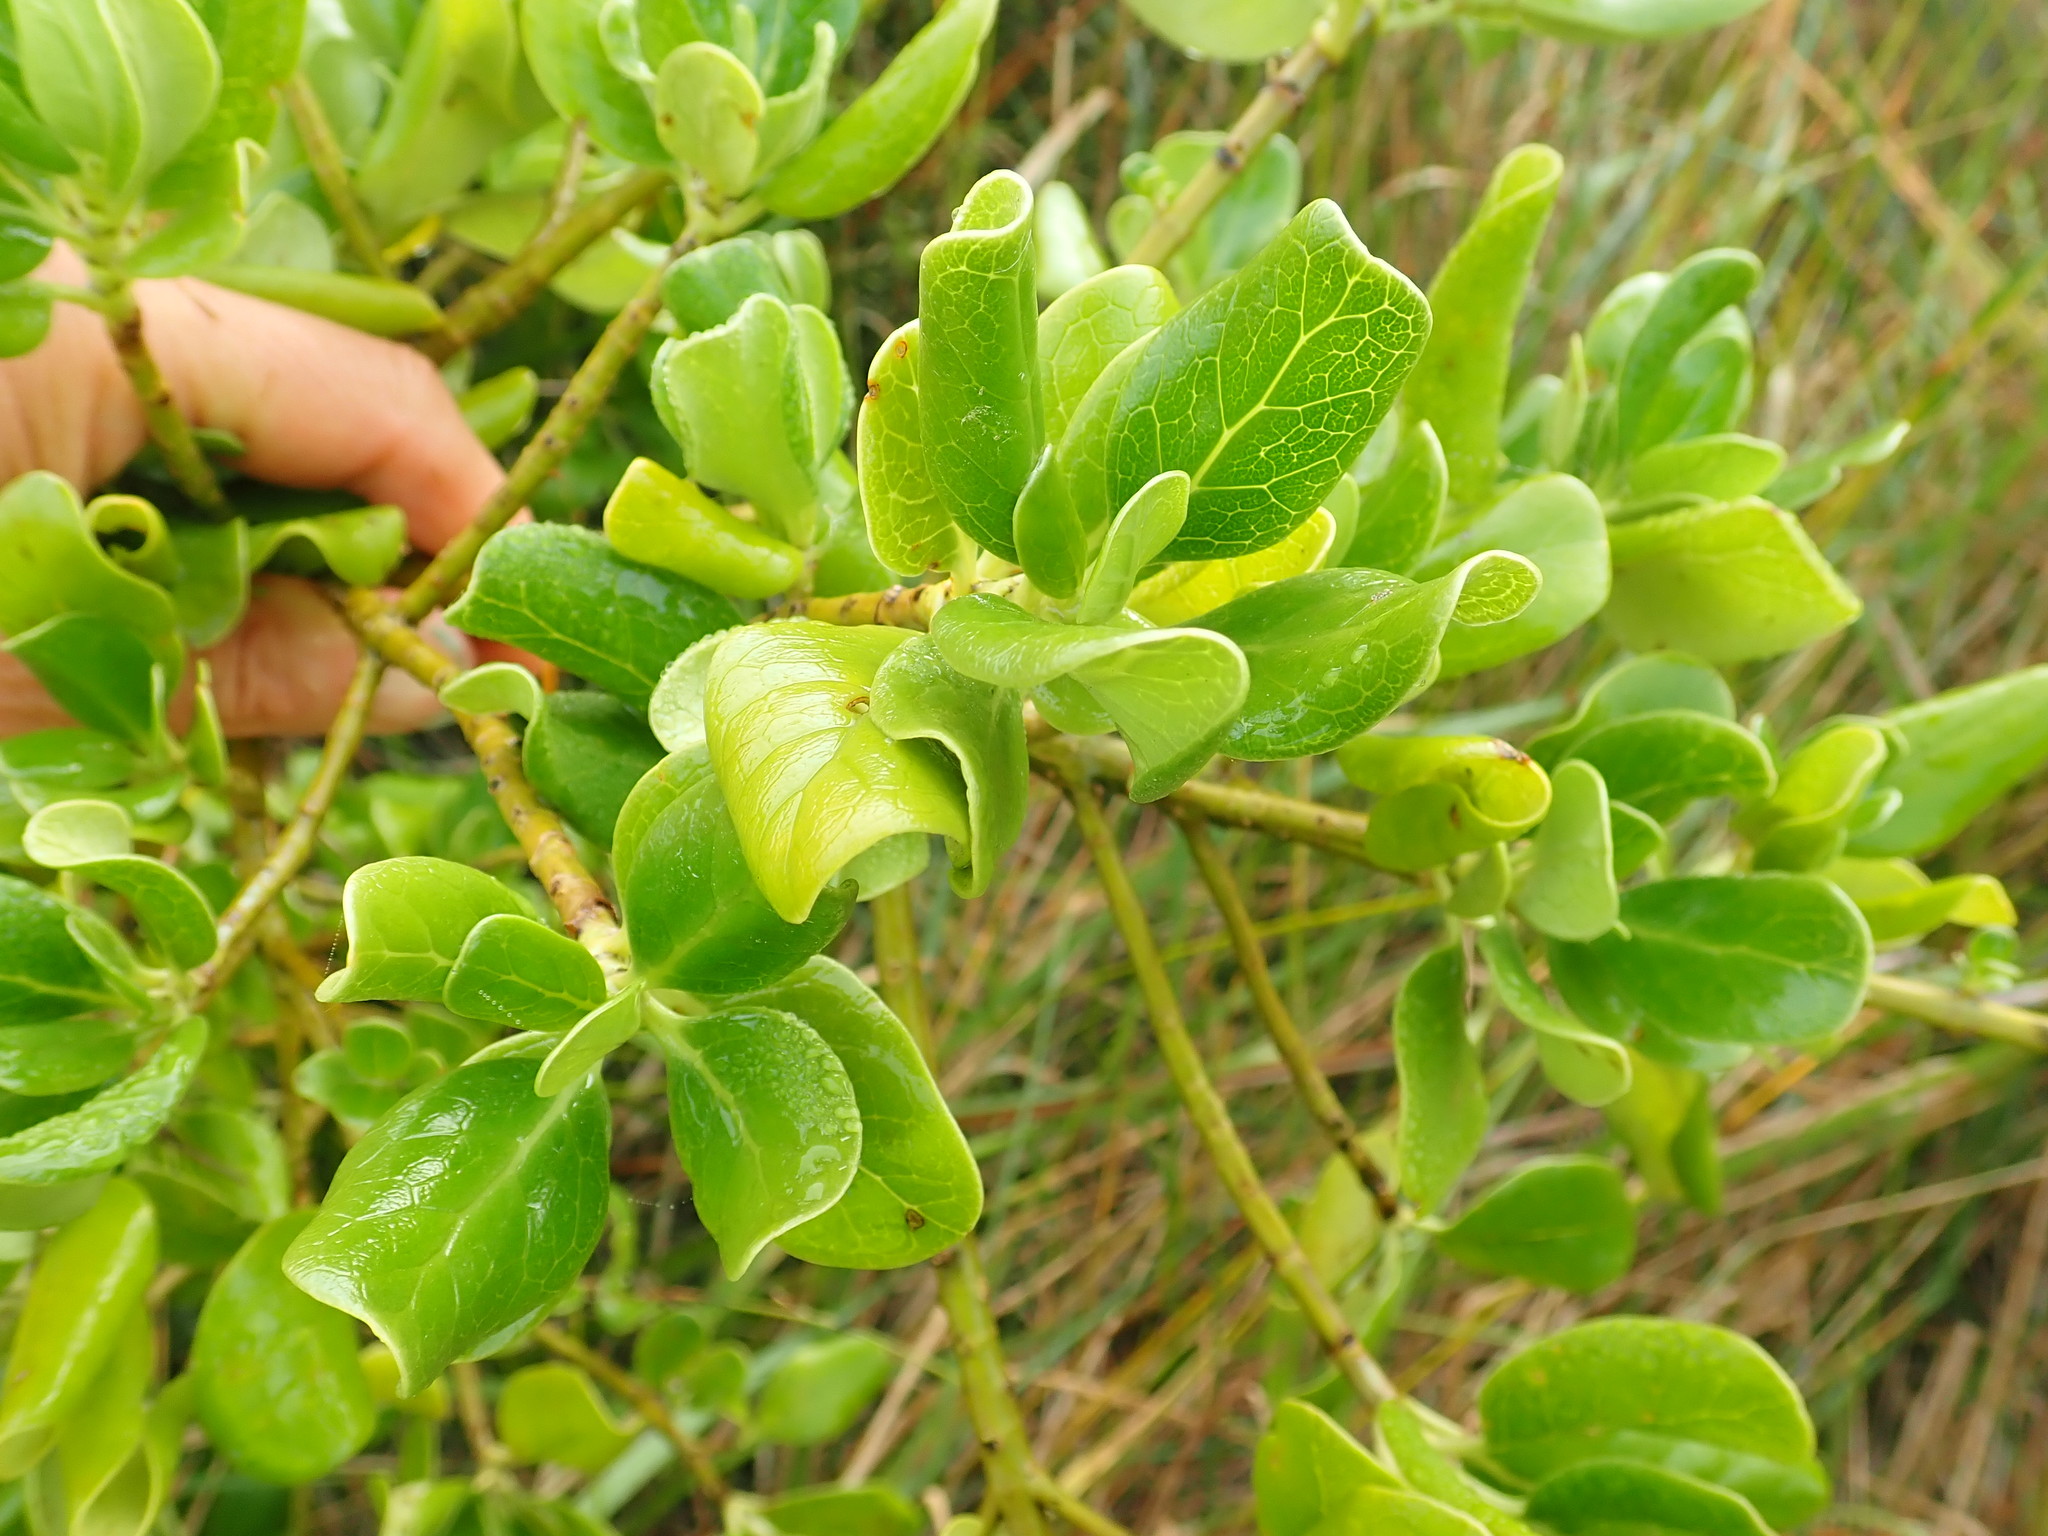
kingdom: Plantae
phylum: Tracheophyta
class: Magnoliopsida
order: Gentianales
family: Rubiaceae
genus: Coprosma
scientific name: Coprosma repens
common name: Tree bedstraw
